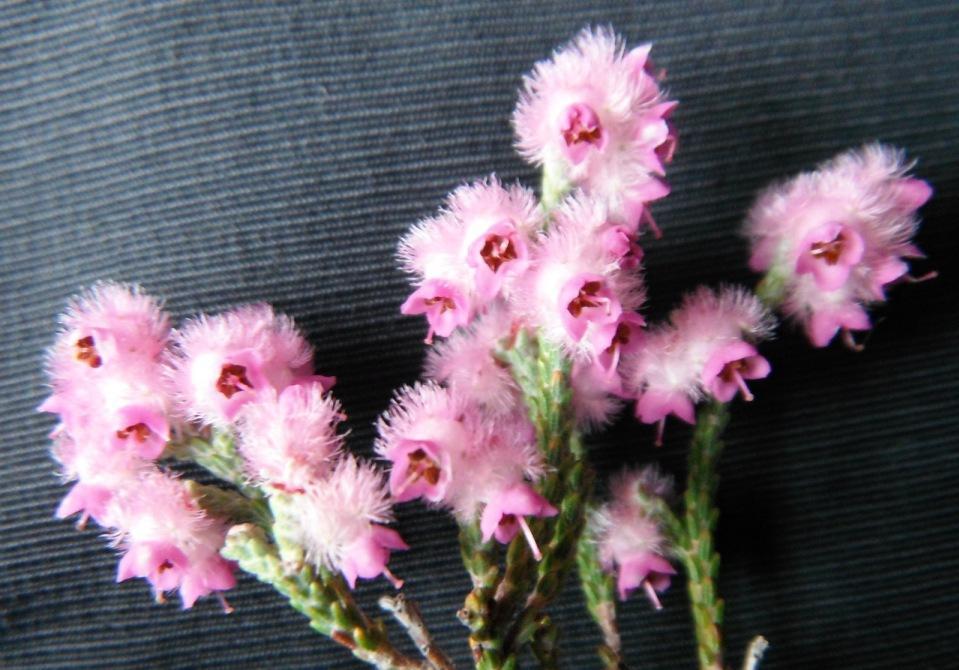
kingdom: Plantae
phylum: Tracheophyta
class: Magnoliopsida
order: Ericales
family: Ericaceae
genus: Erica
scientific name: Erica plumosa
